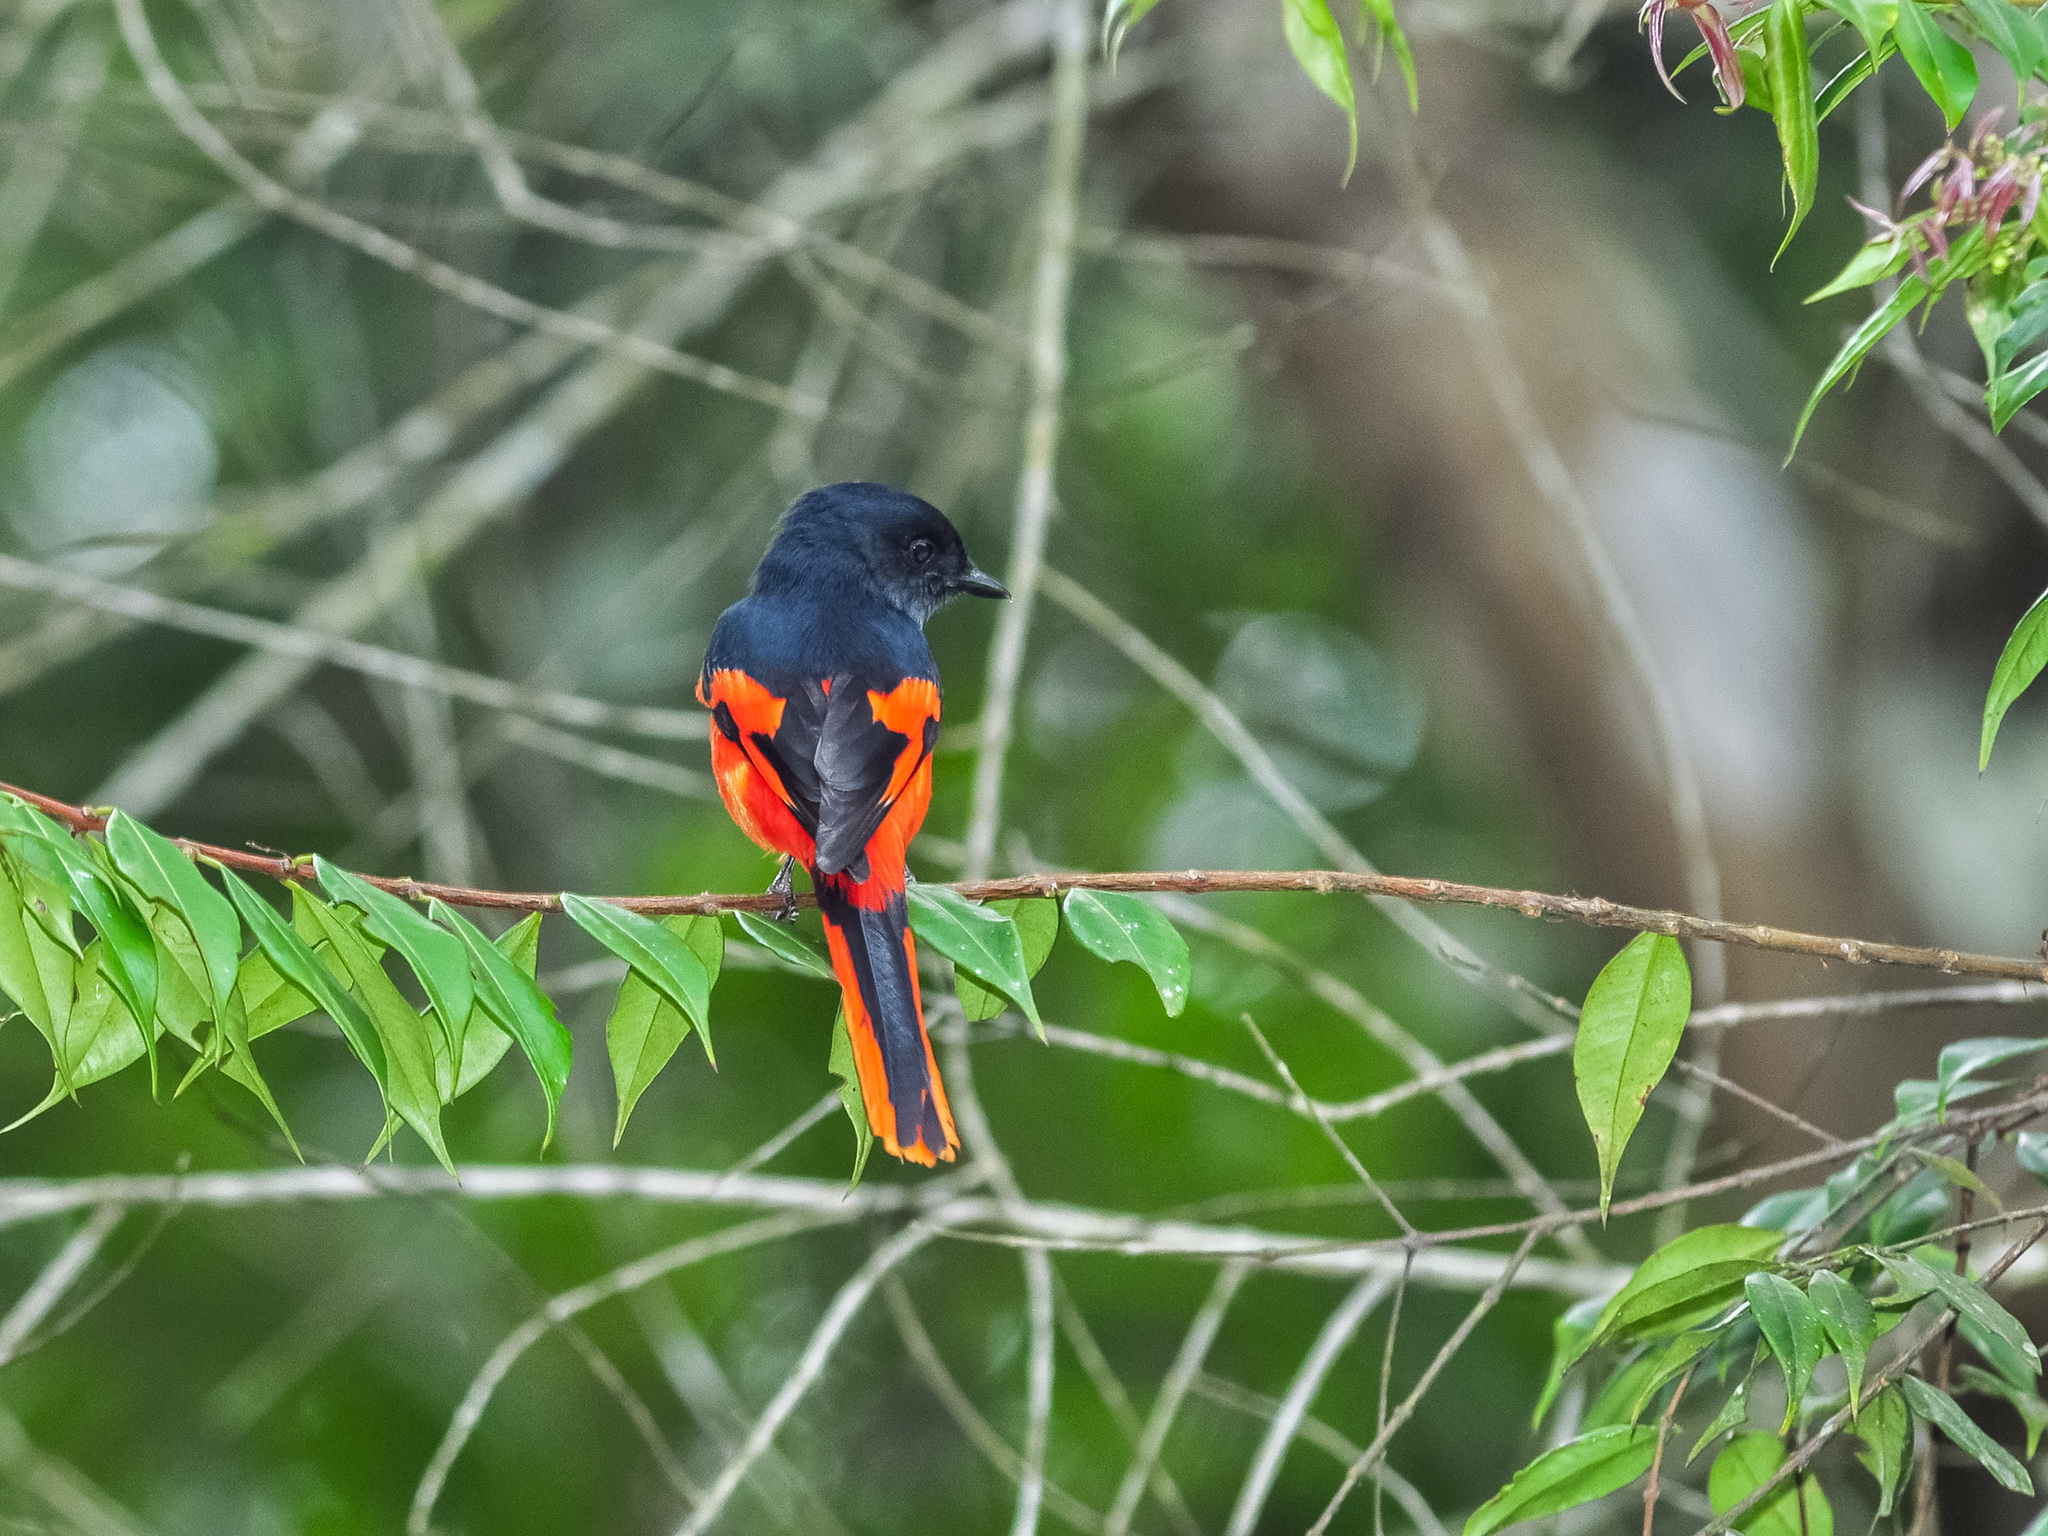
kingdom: Animalia
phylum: Chordata
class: Aves
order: Passeriformes
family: Campephagidae
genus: Pericrocotus
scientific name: Pericrocotus solaris
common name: Grey-chinned minivet
